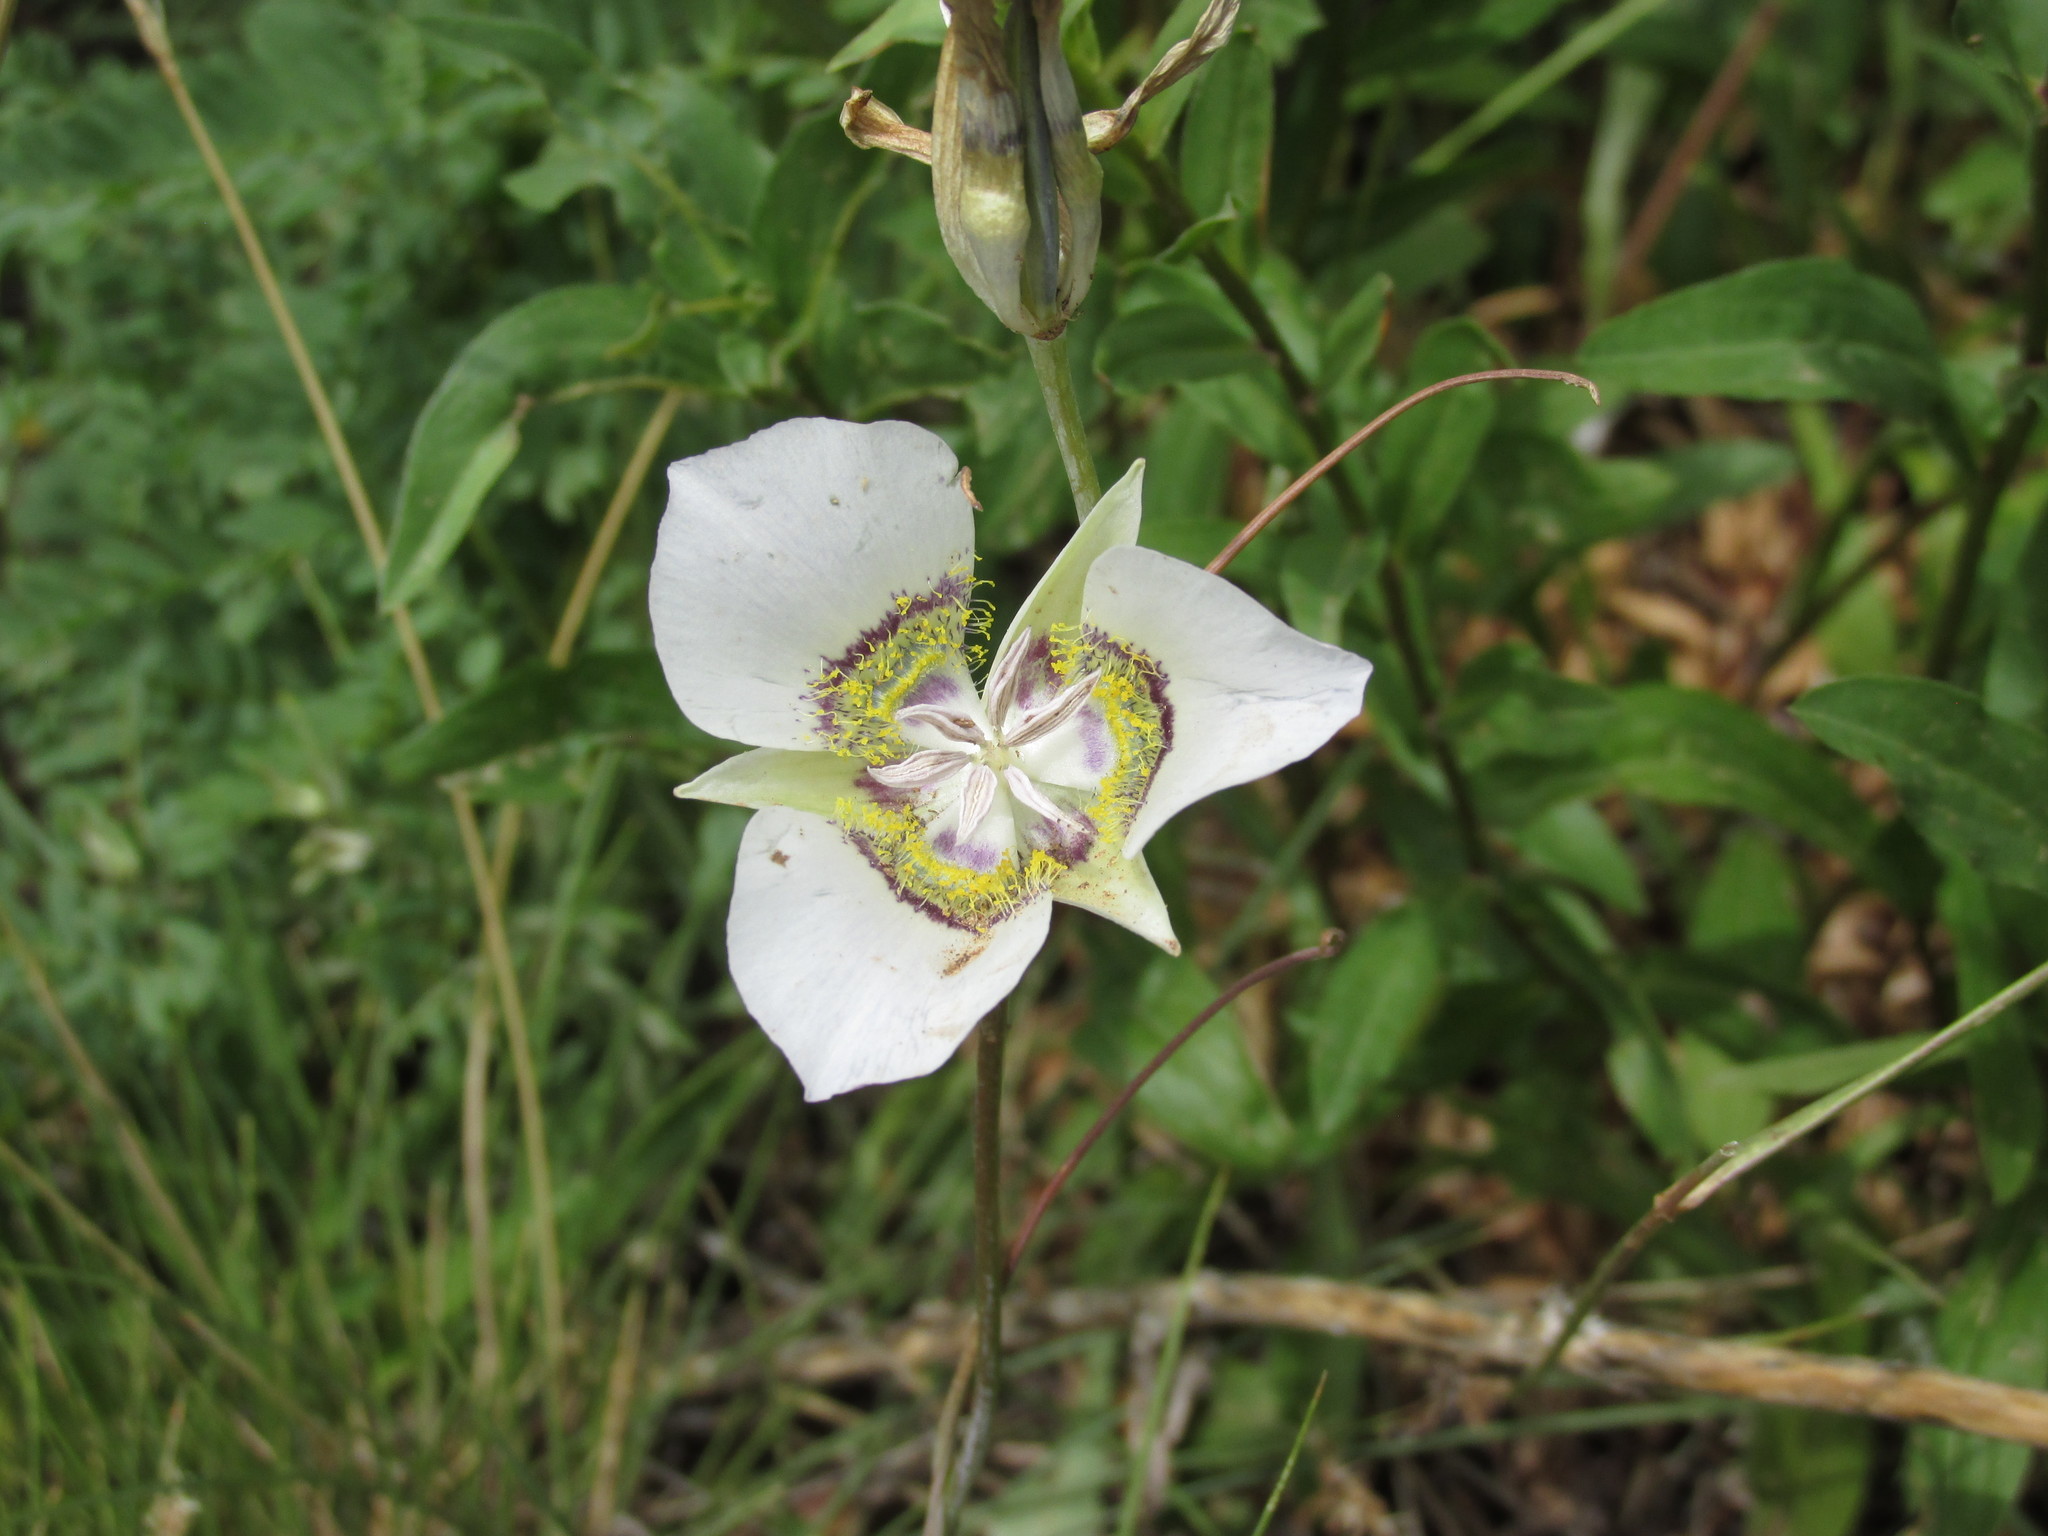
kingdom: Plantae
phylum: Tracheophyta
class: Liliopsida
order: Liliales
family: Liliaceae
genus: Calochortus
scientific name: Calochortus gunnisonii
